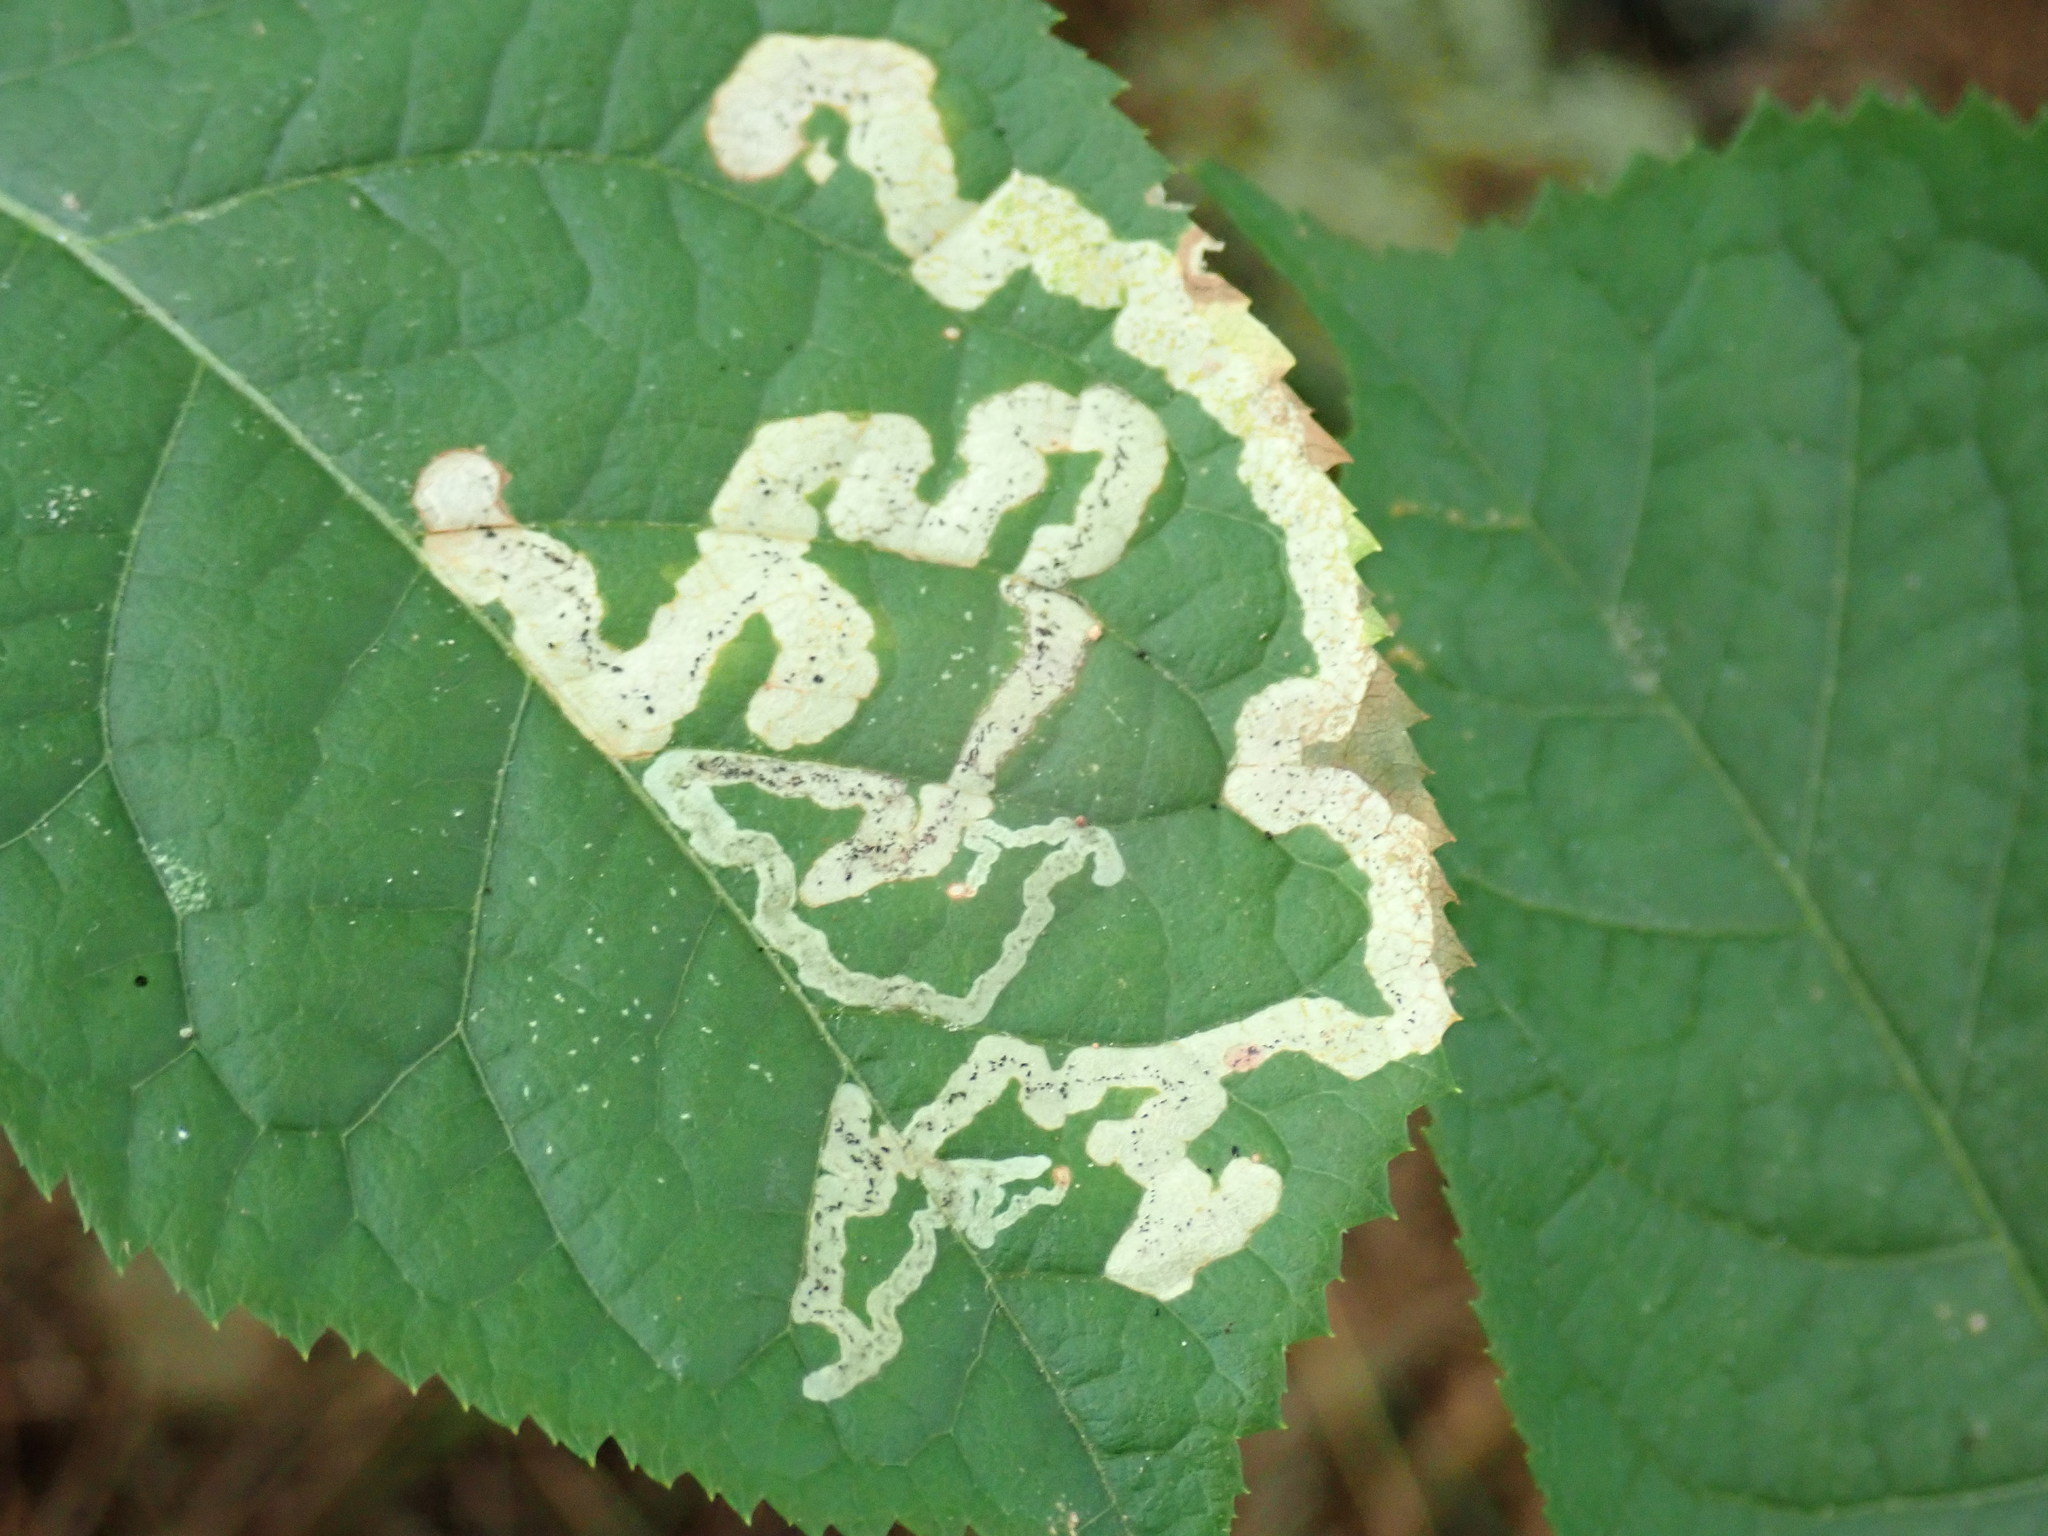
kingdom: Animalia
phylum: Arthropoda
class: Insecta
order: Diptera
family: Agromyzidae
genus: Phytomyza
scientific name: Phytomyza aralivora
